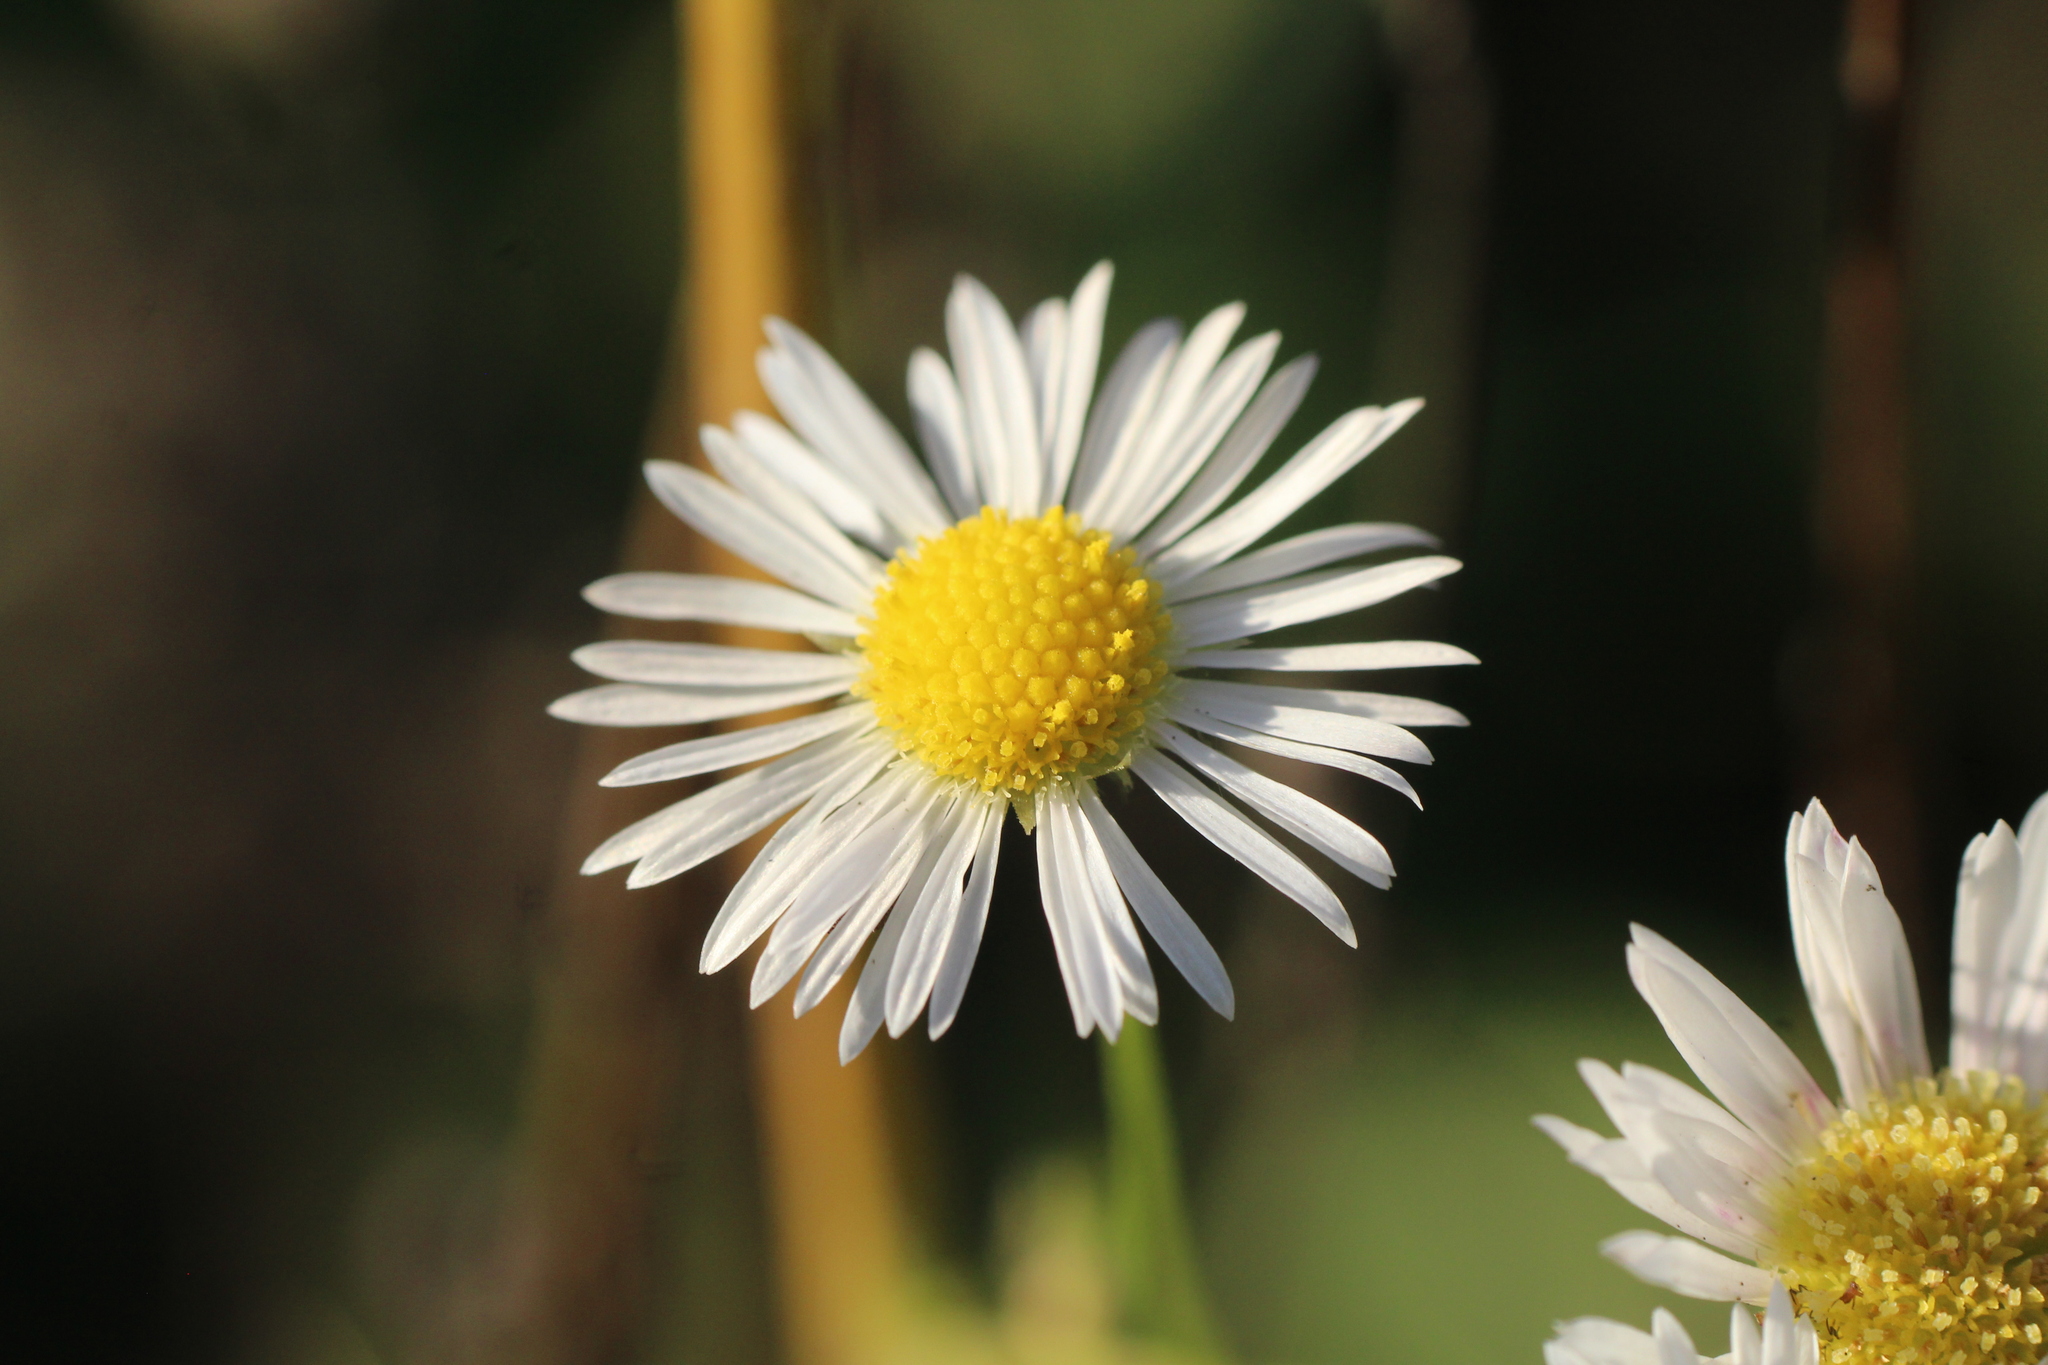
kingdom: Plantae
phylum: Tracheophyta
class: Magnoliopsida
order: Asterales
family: Asteraceae
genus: Erigeron
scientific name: Erigeron annuus
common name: Tall fleabane
